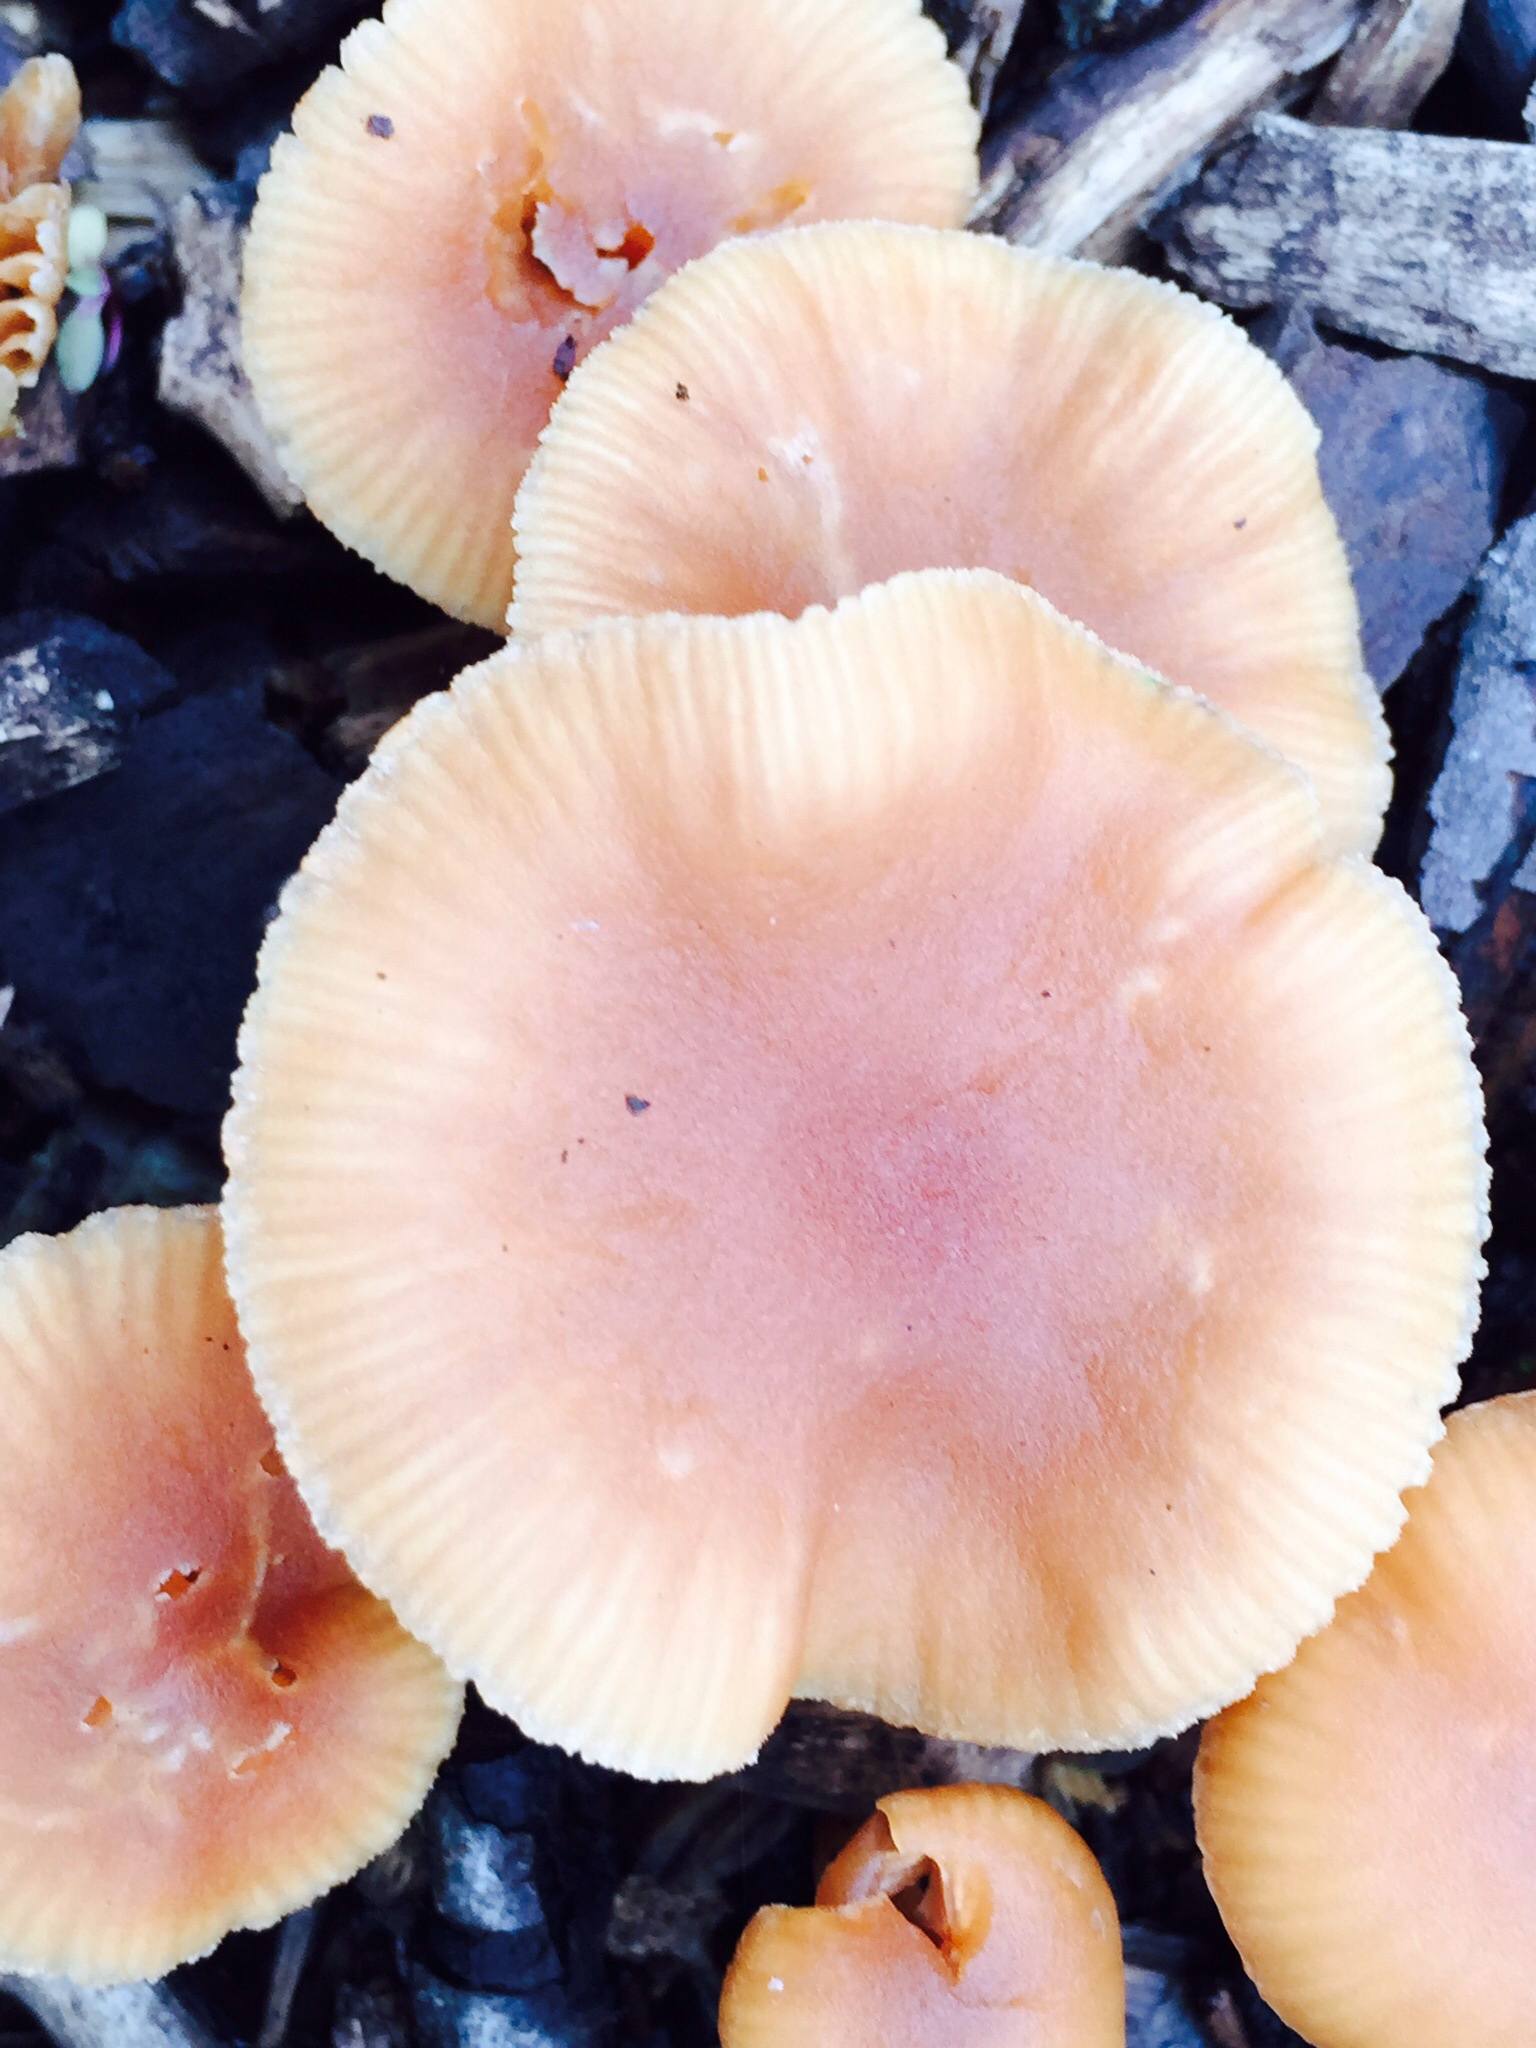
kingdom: Fungi
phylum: Basidiomycota
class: Agaricomycetes
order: Agaricales
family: Tubariaceae
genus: Tubaria
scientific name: Tubaria furfuracea
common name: Scurfy twiglet
